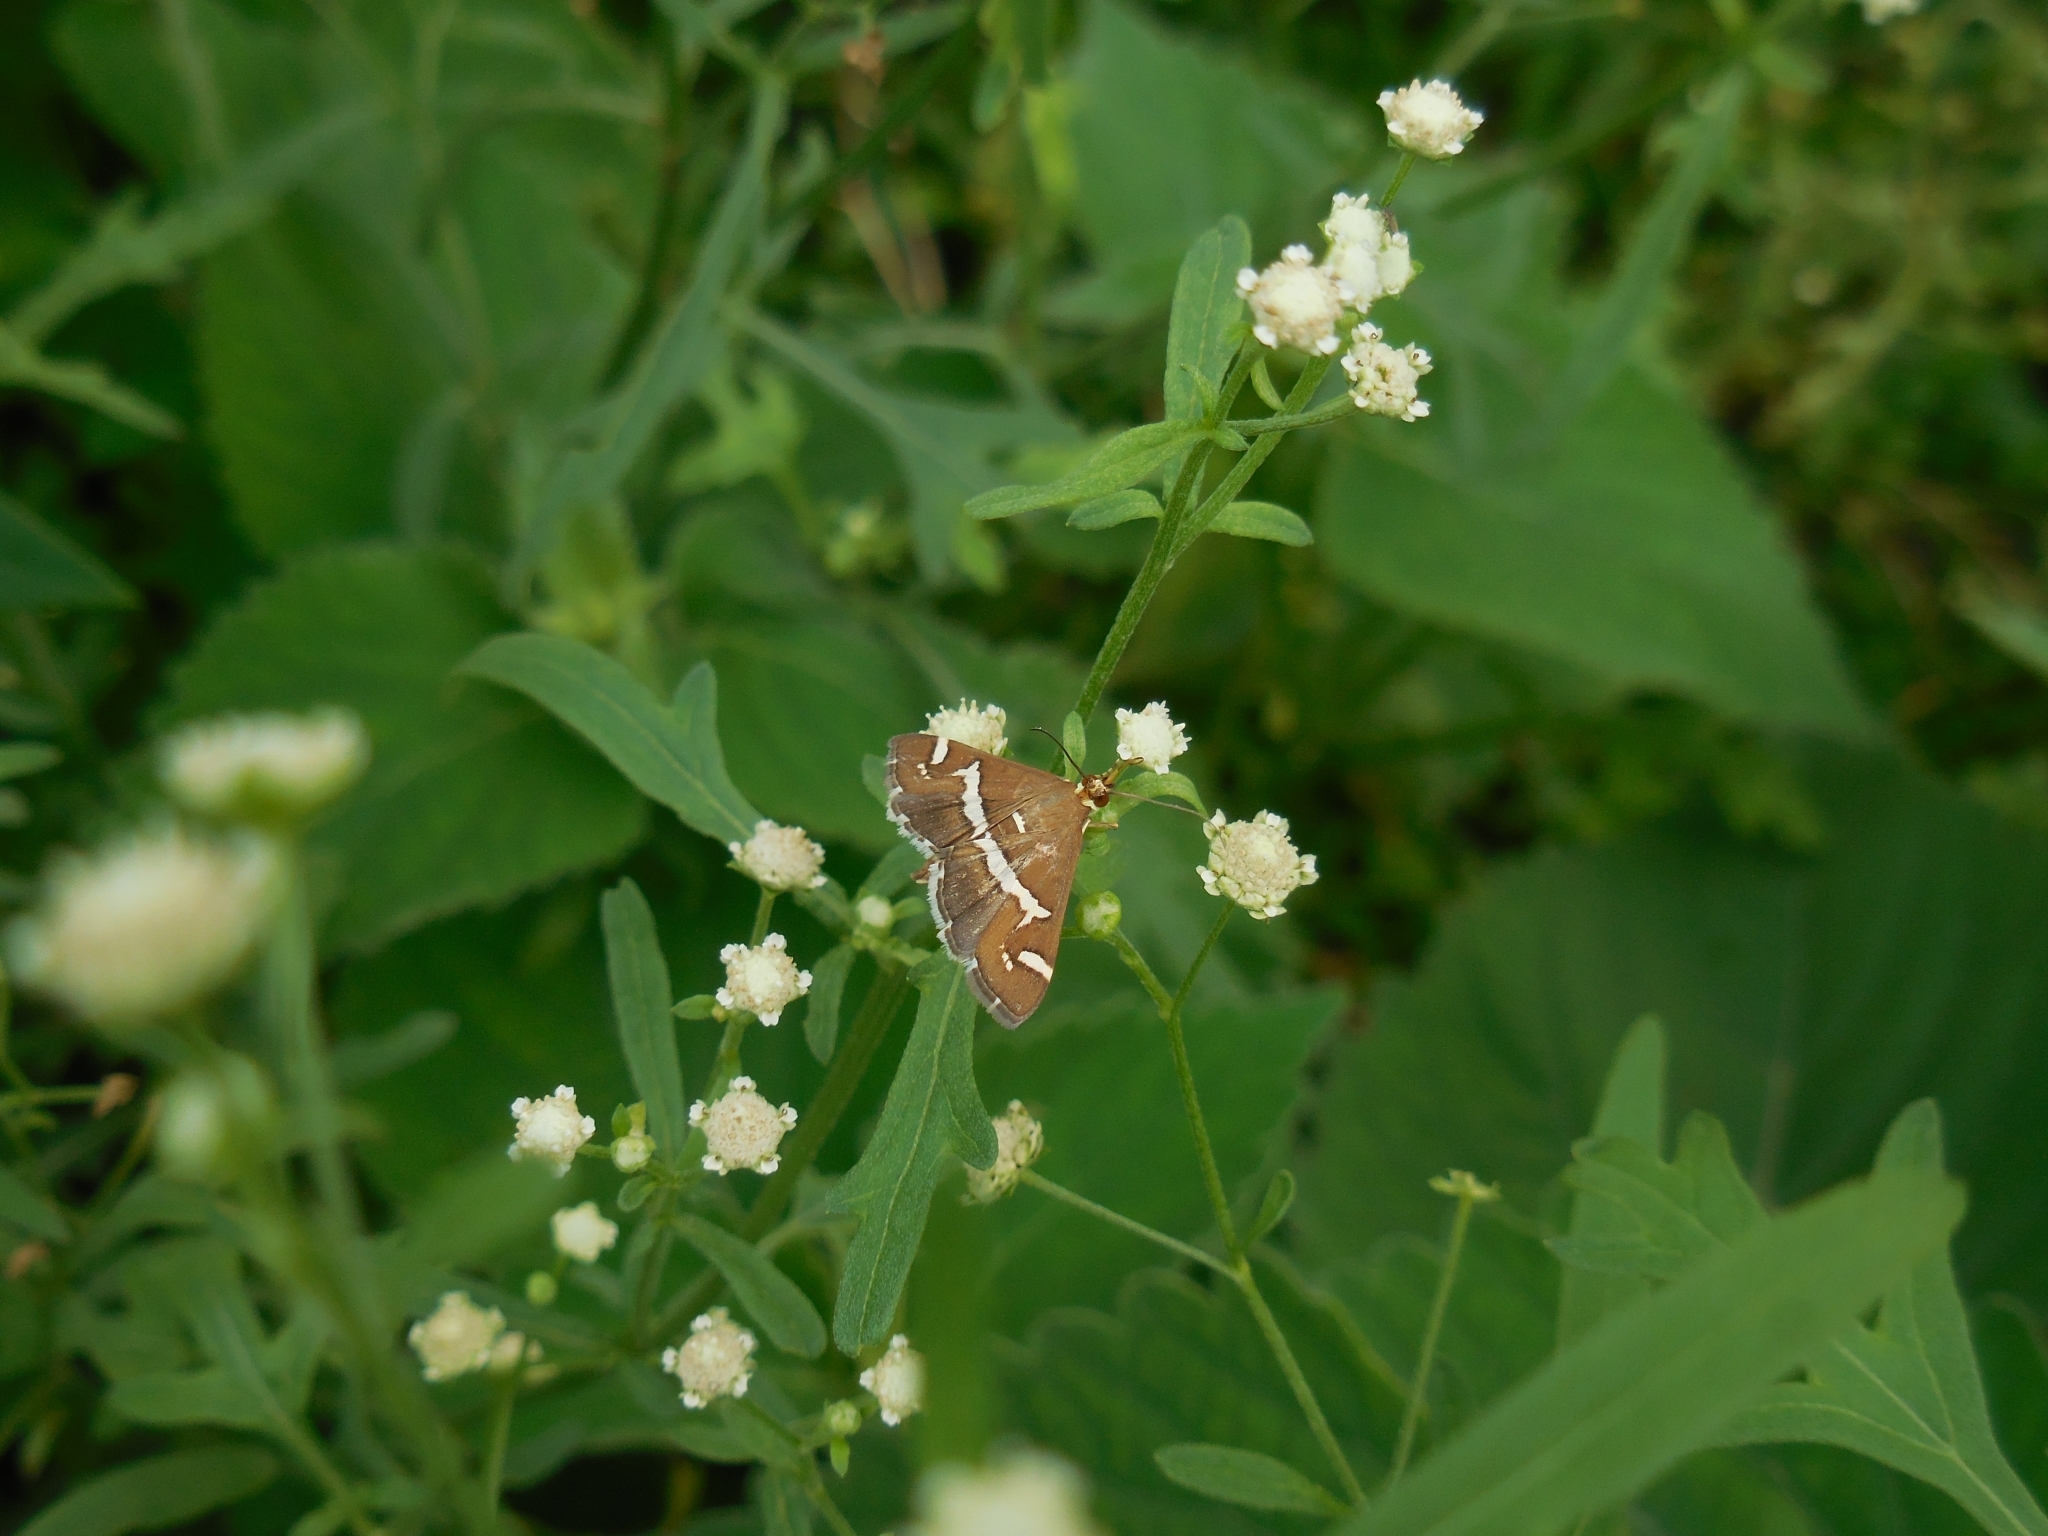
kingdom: Animalia
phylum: Arthropoda
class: Insecta
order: Lepidoptera
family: Crambidae
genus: Spoladea
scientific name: Spoladea recurvalis
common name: Beet webworm moth
